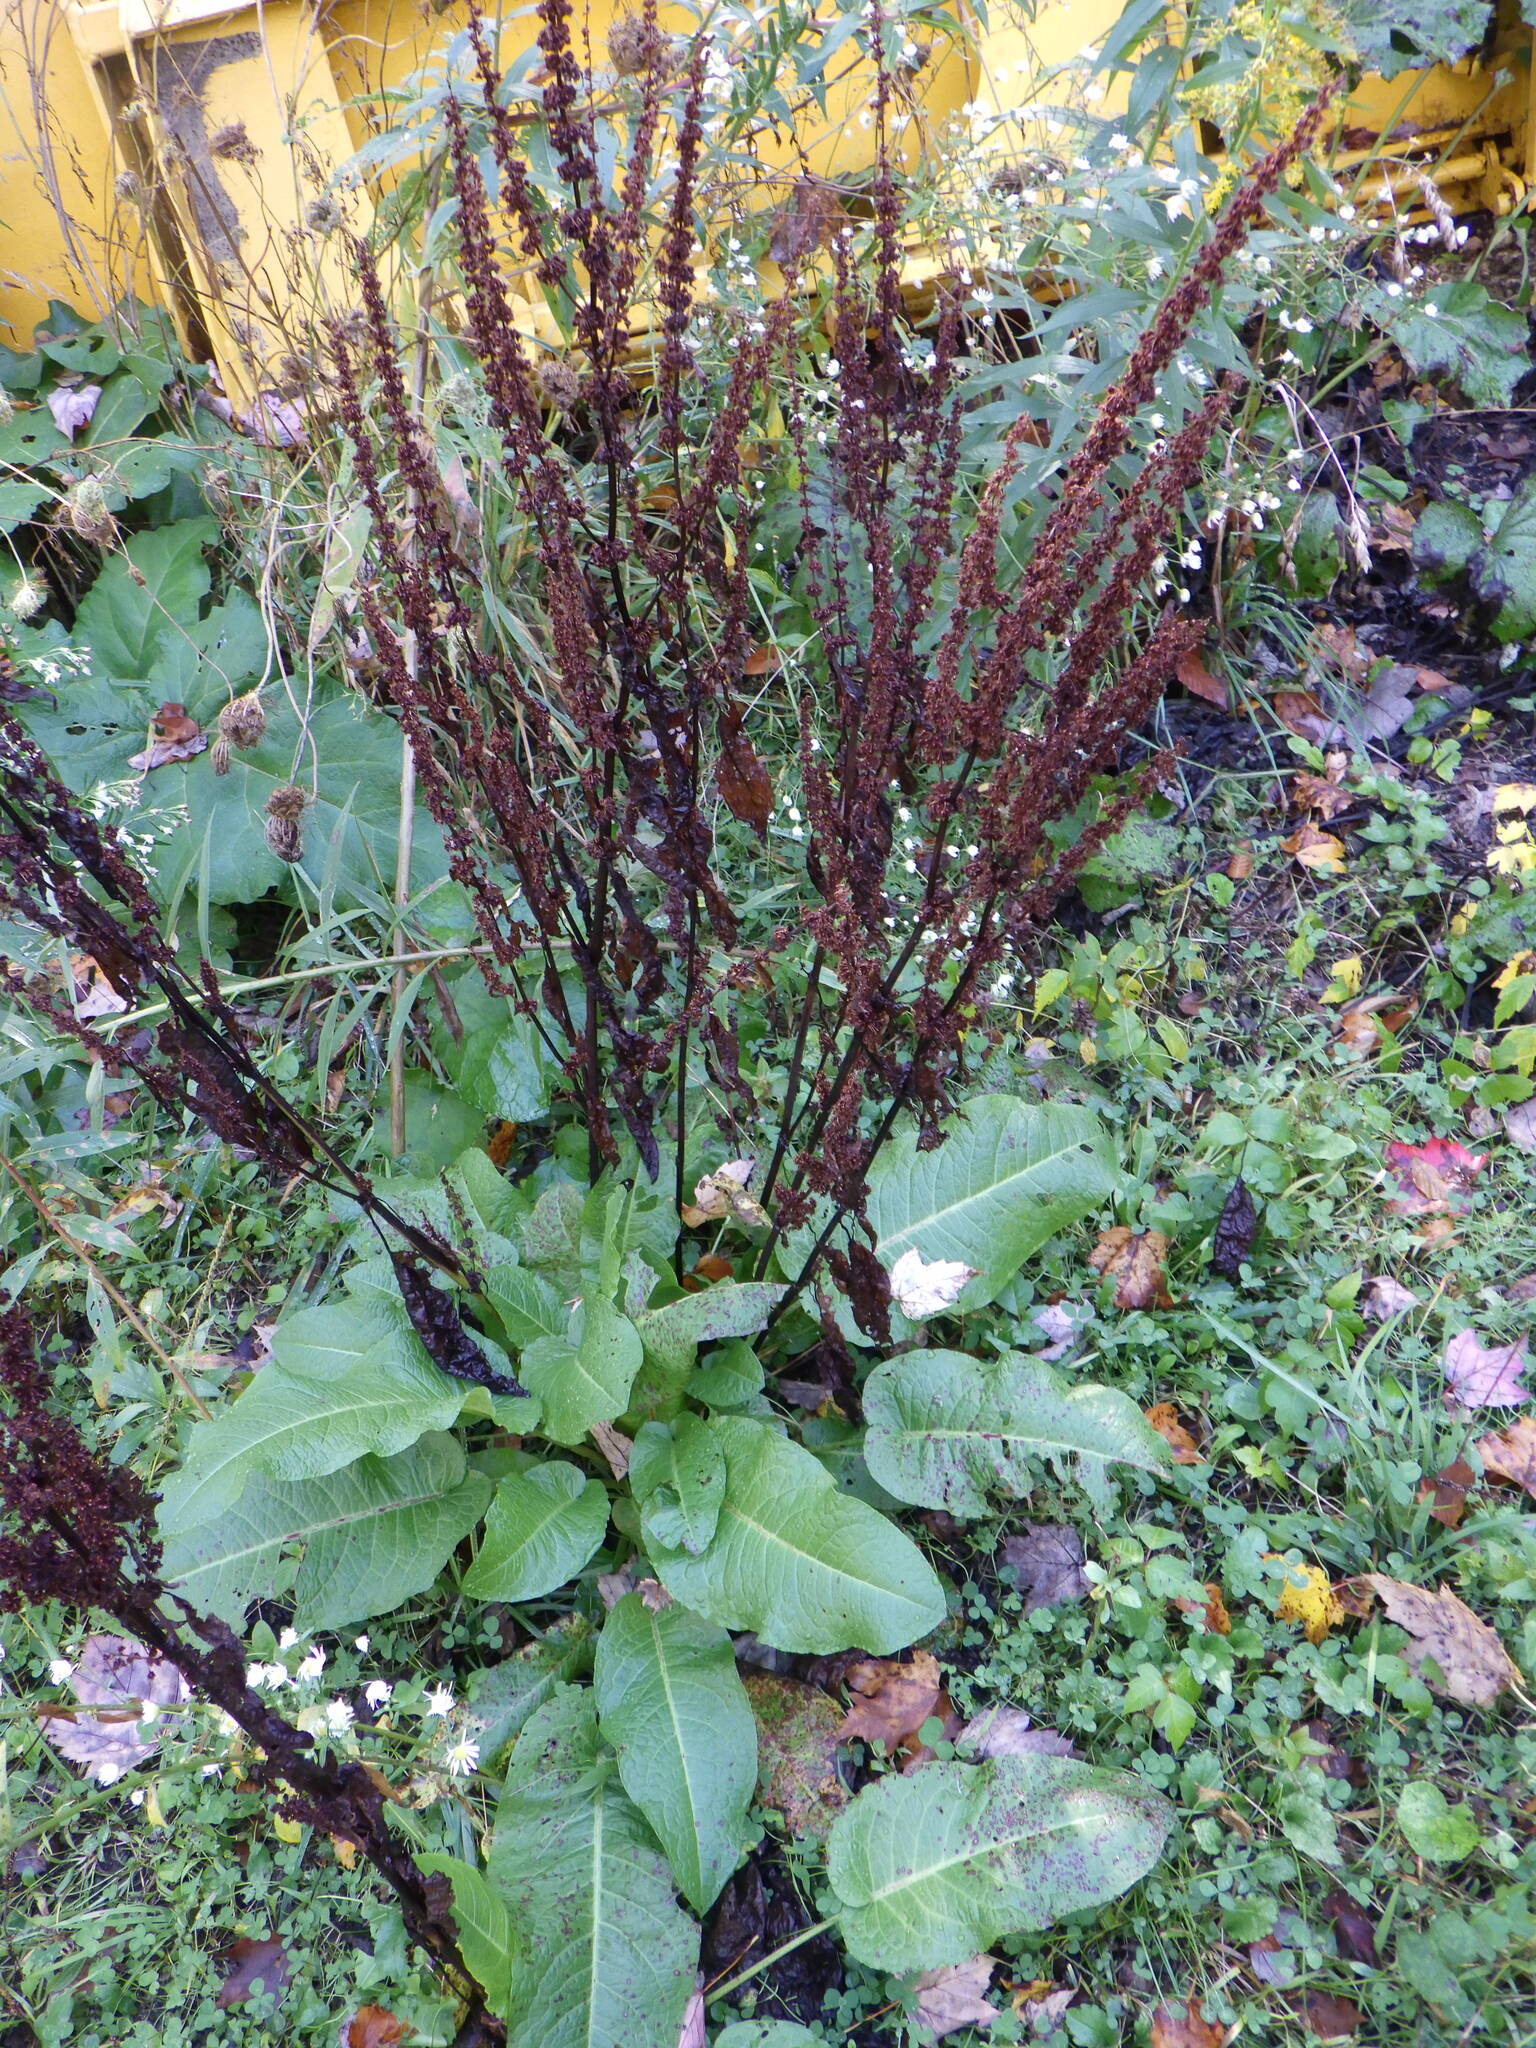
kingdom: Plantae
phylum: Tracheophyta
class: Magnoliopsida
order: Caryophyllales
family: Polygonaceae
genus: Rumex
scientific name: Rumex obtusifolius
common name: Bitter dock
